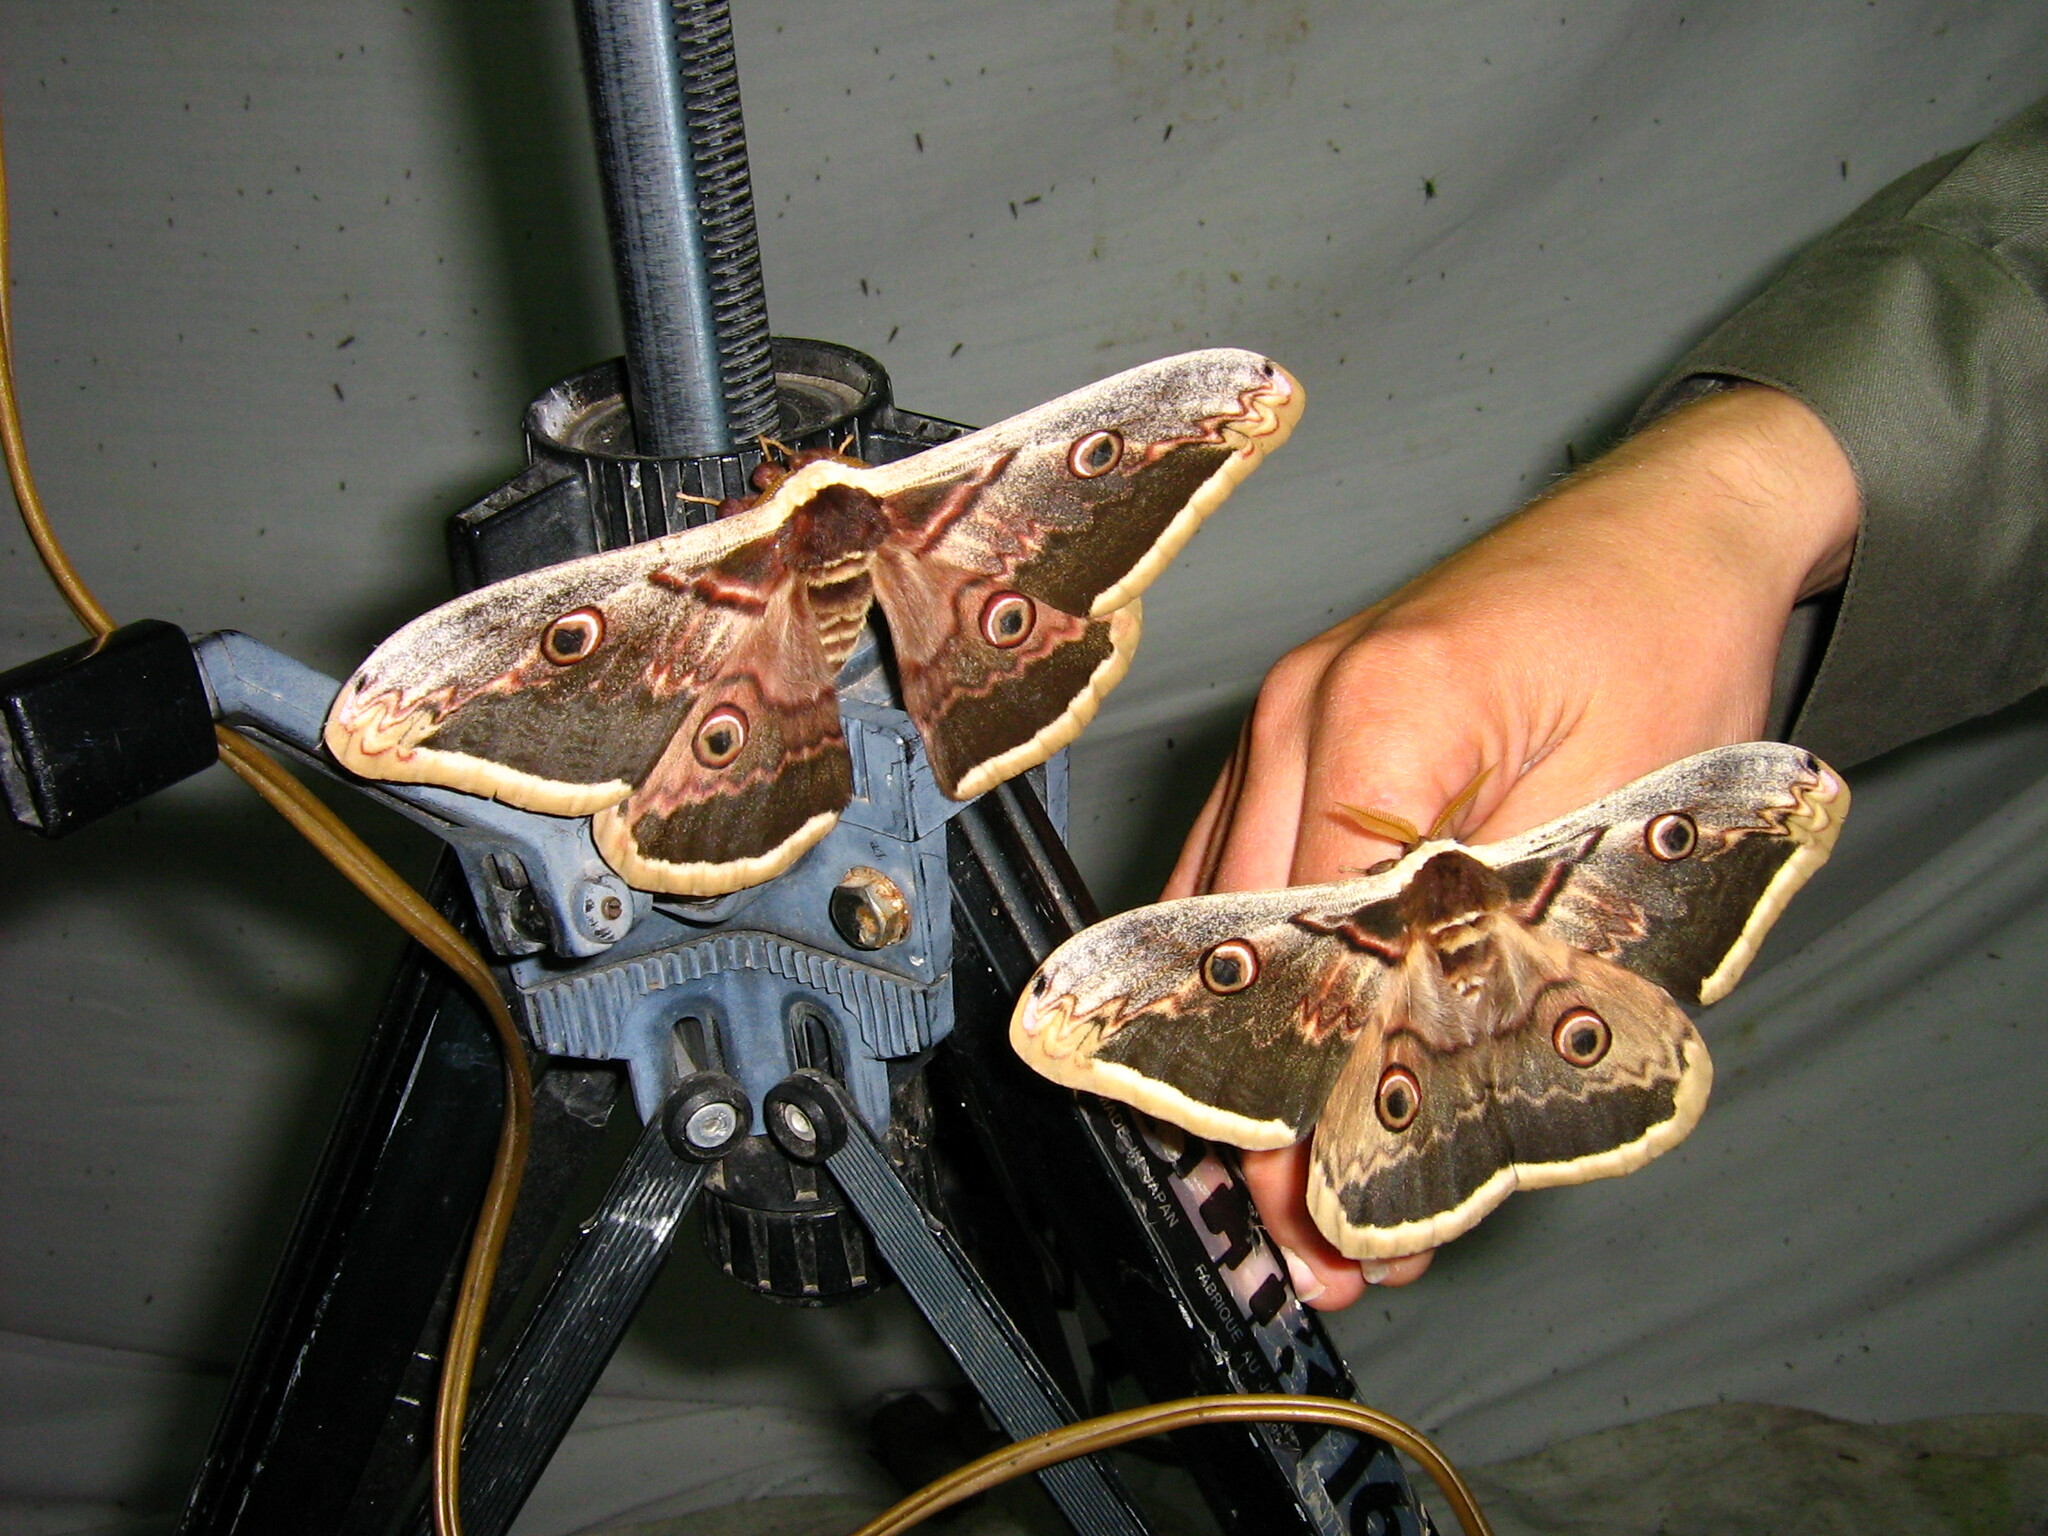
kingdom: Animalia
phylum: Arthropoda
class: Insecta
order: Lepidoptera
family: Saturniidae
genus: Saturnia
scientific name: Saturnia pyri
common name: Great peacock moth
